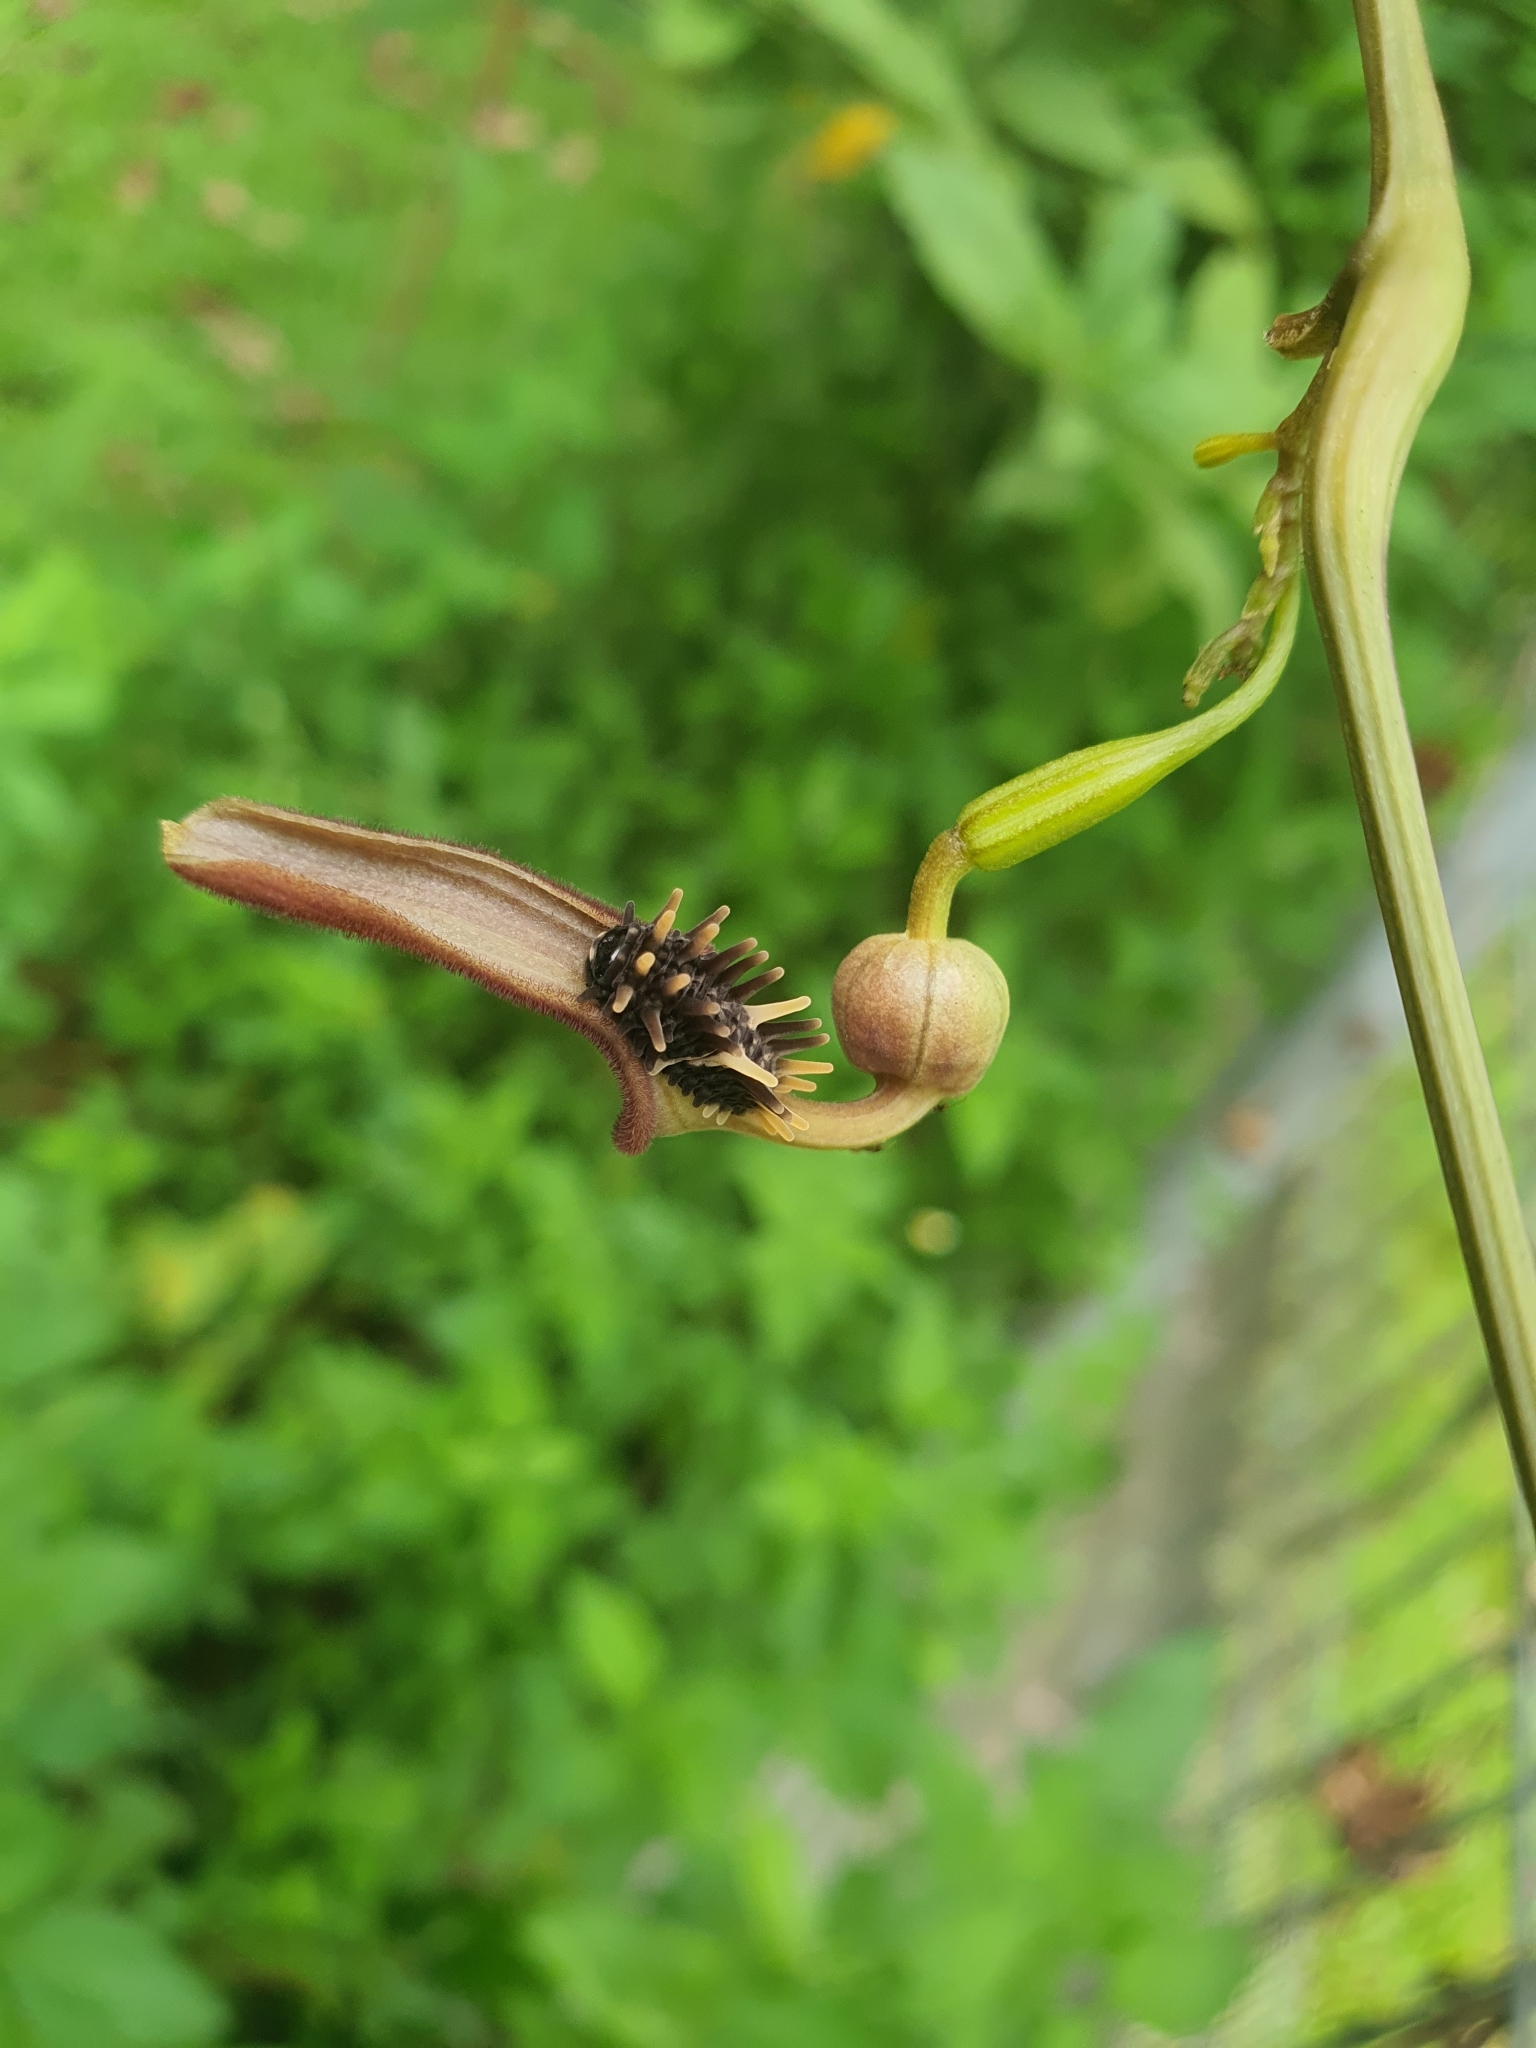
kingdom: Animalia
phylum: Arthropoda
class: Insecta
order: Lepidoptera
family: Papilionidae
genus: Troides
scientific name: Troides helena
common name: Common birdwing
